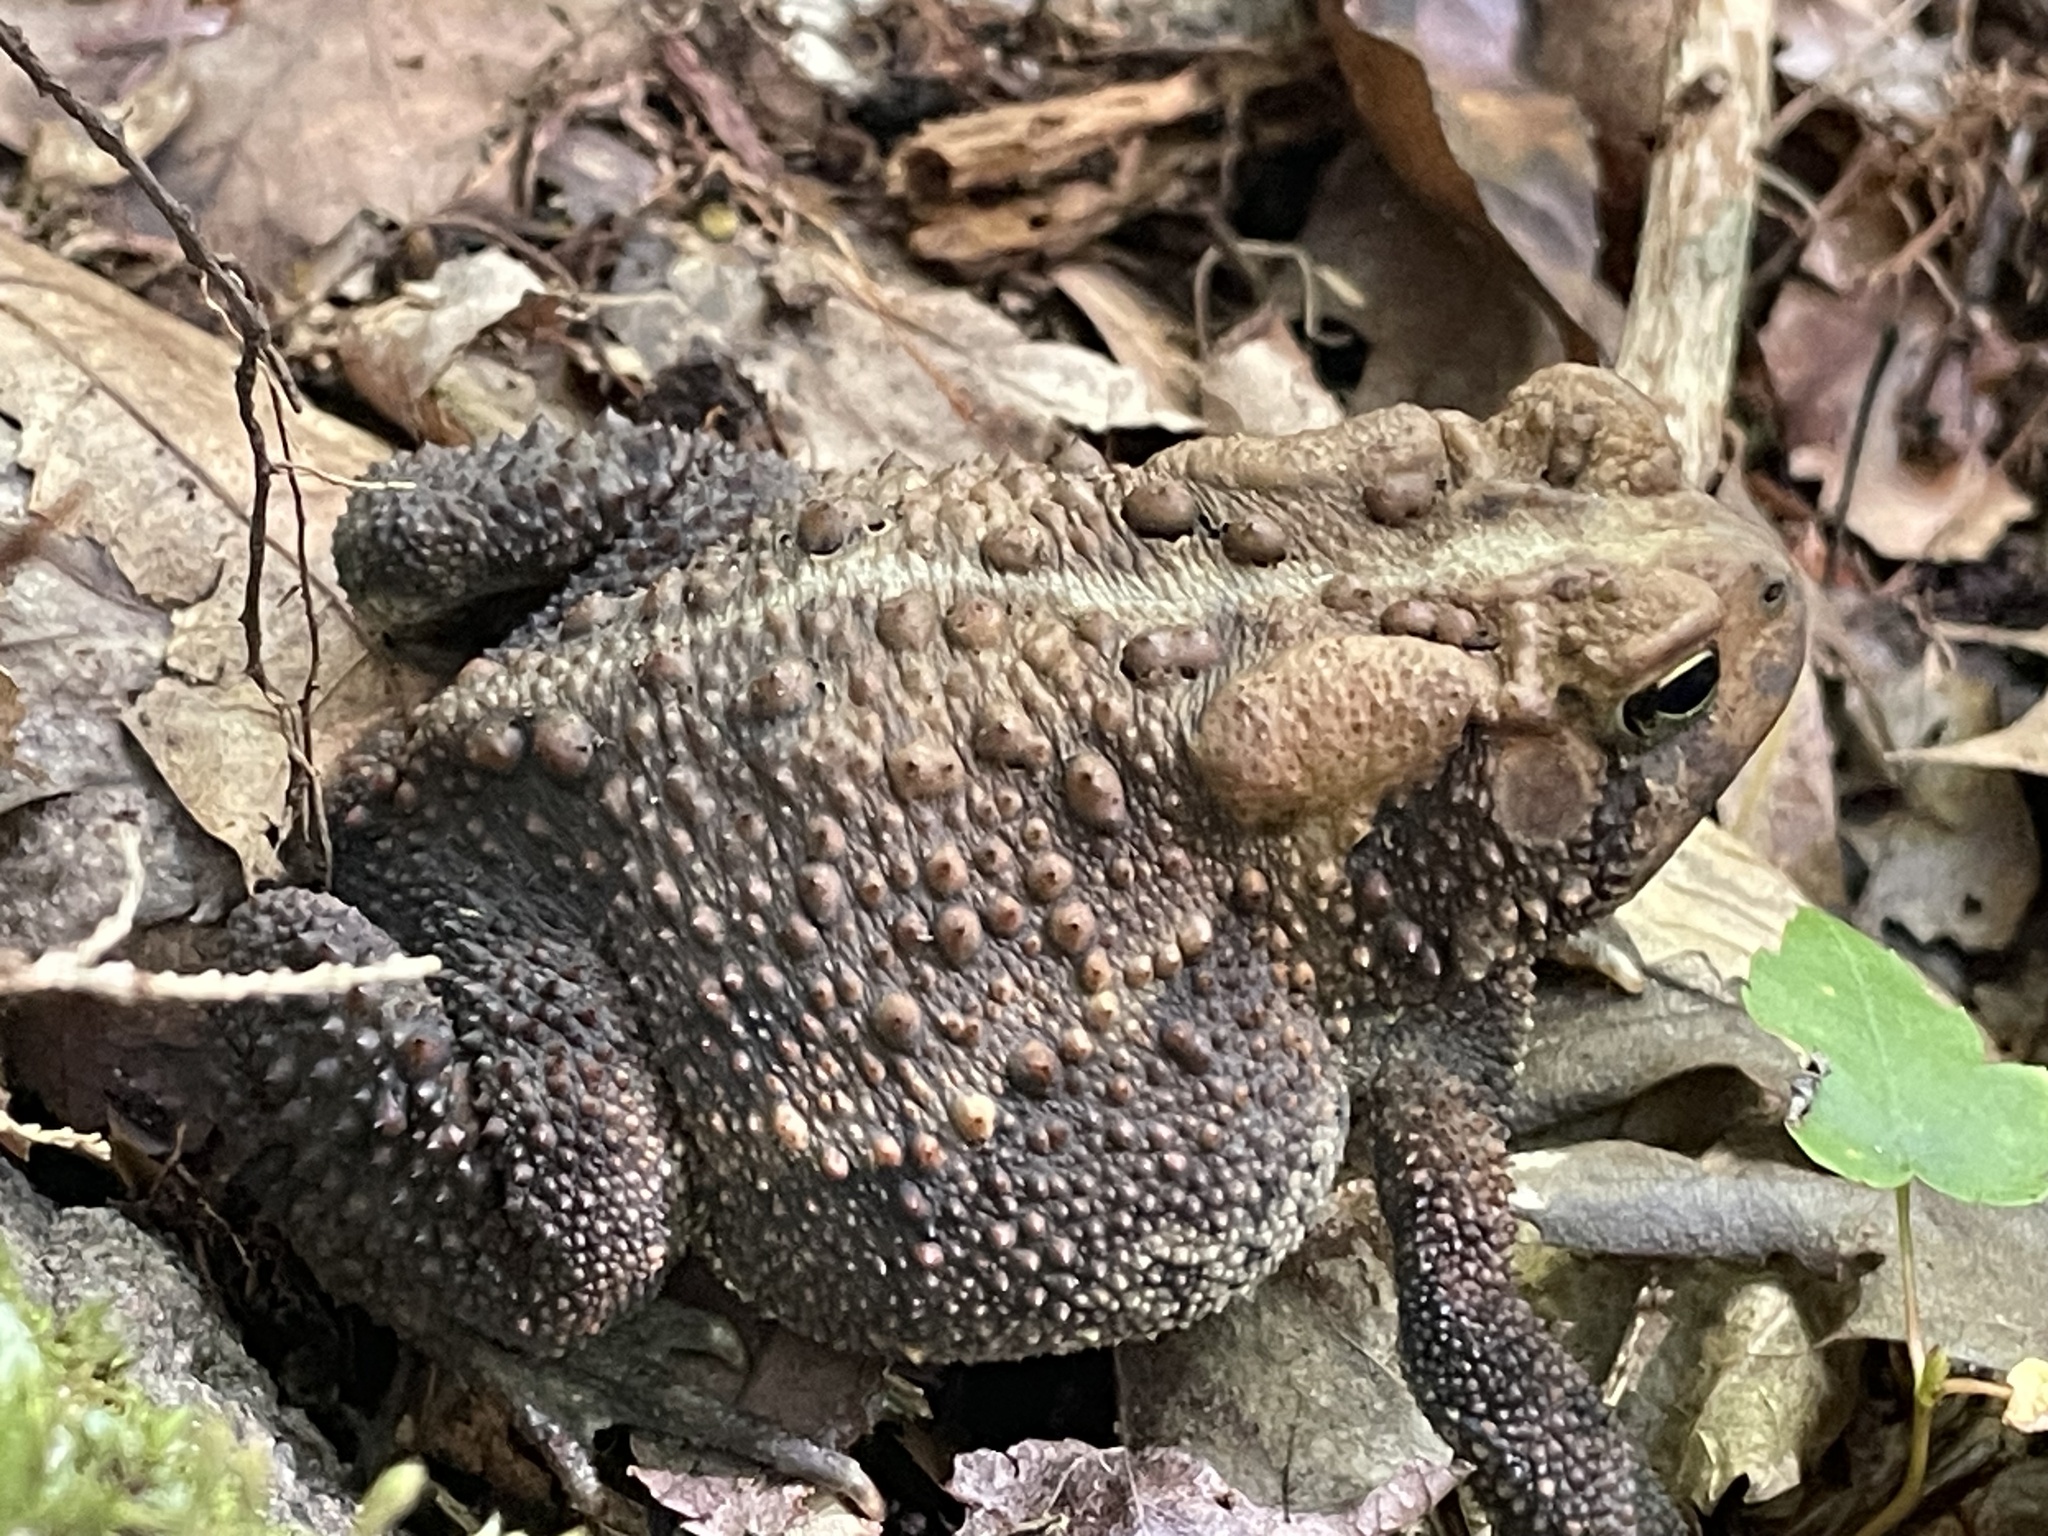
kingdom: Animalia
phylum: Chordata
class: Amphibia
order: Anura
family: Bufonidae
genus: Anaxyrus
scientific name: Anaxyrus americanus
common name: American toad
